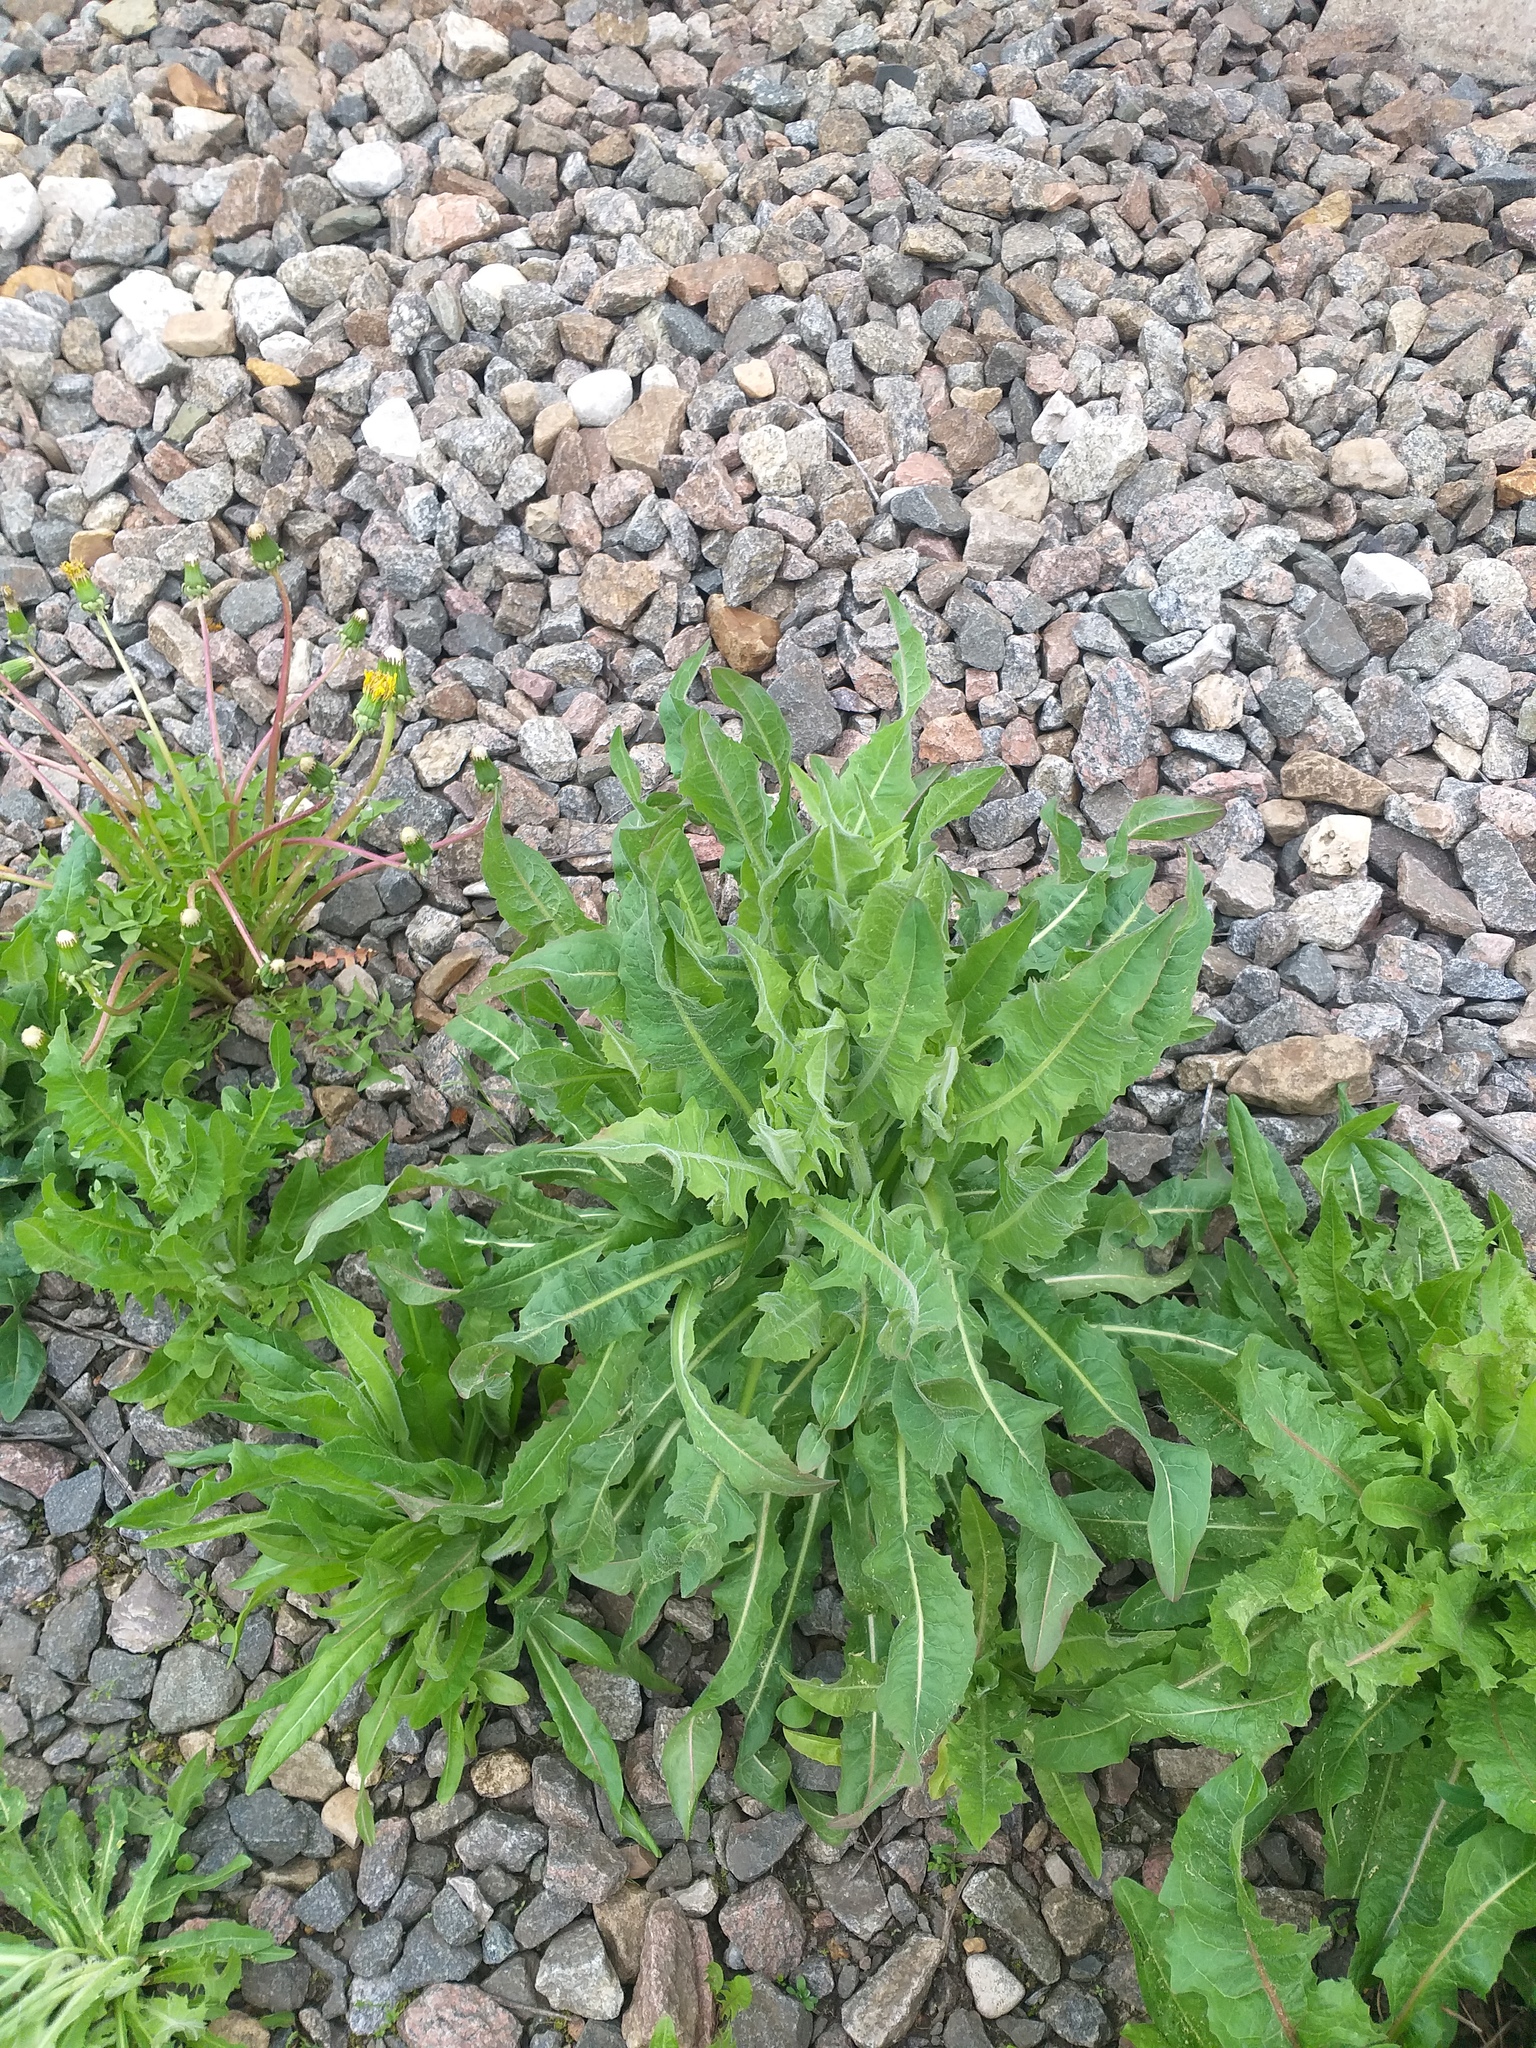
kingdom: Plantae
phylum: Tracheophyta
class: Magnoliopsida
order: Asterales
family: Asteraceae
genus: Cichorium
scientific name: Cichorium intybus
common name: Chicory
